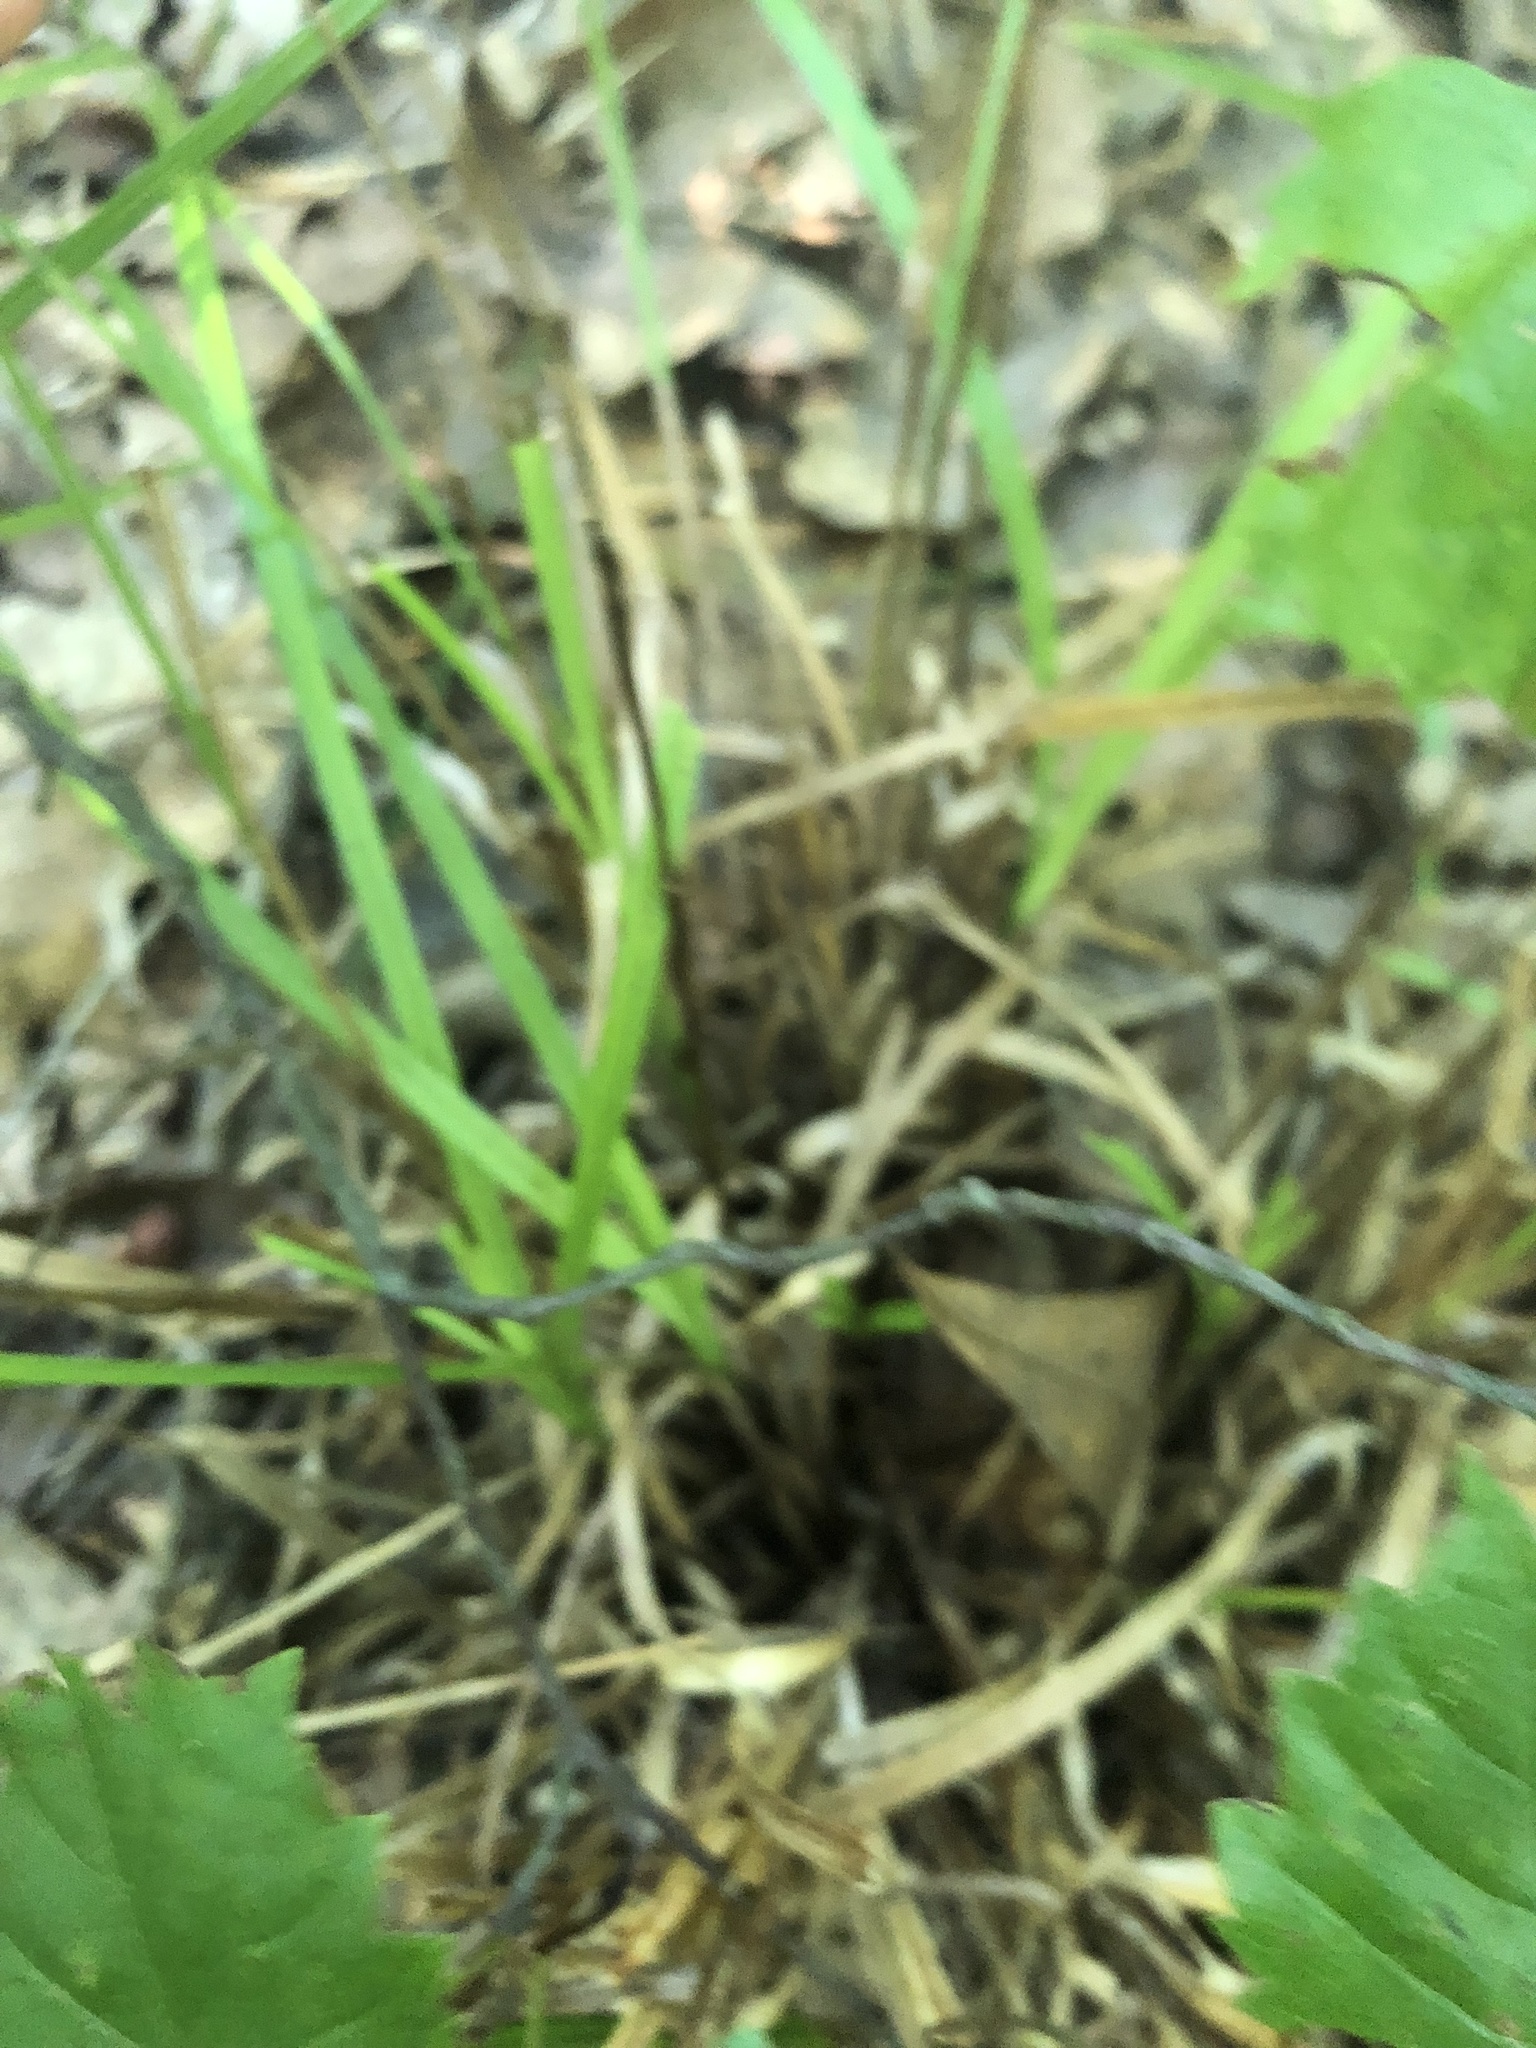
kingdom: Plantae
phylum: Tracheophyta
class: Liliopsida
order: Poales
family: Cyperaceae
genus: Carex
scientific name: Carex intumescens
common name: Greater bladder sedge
